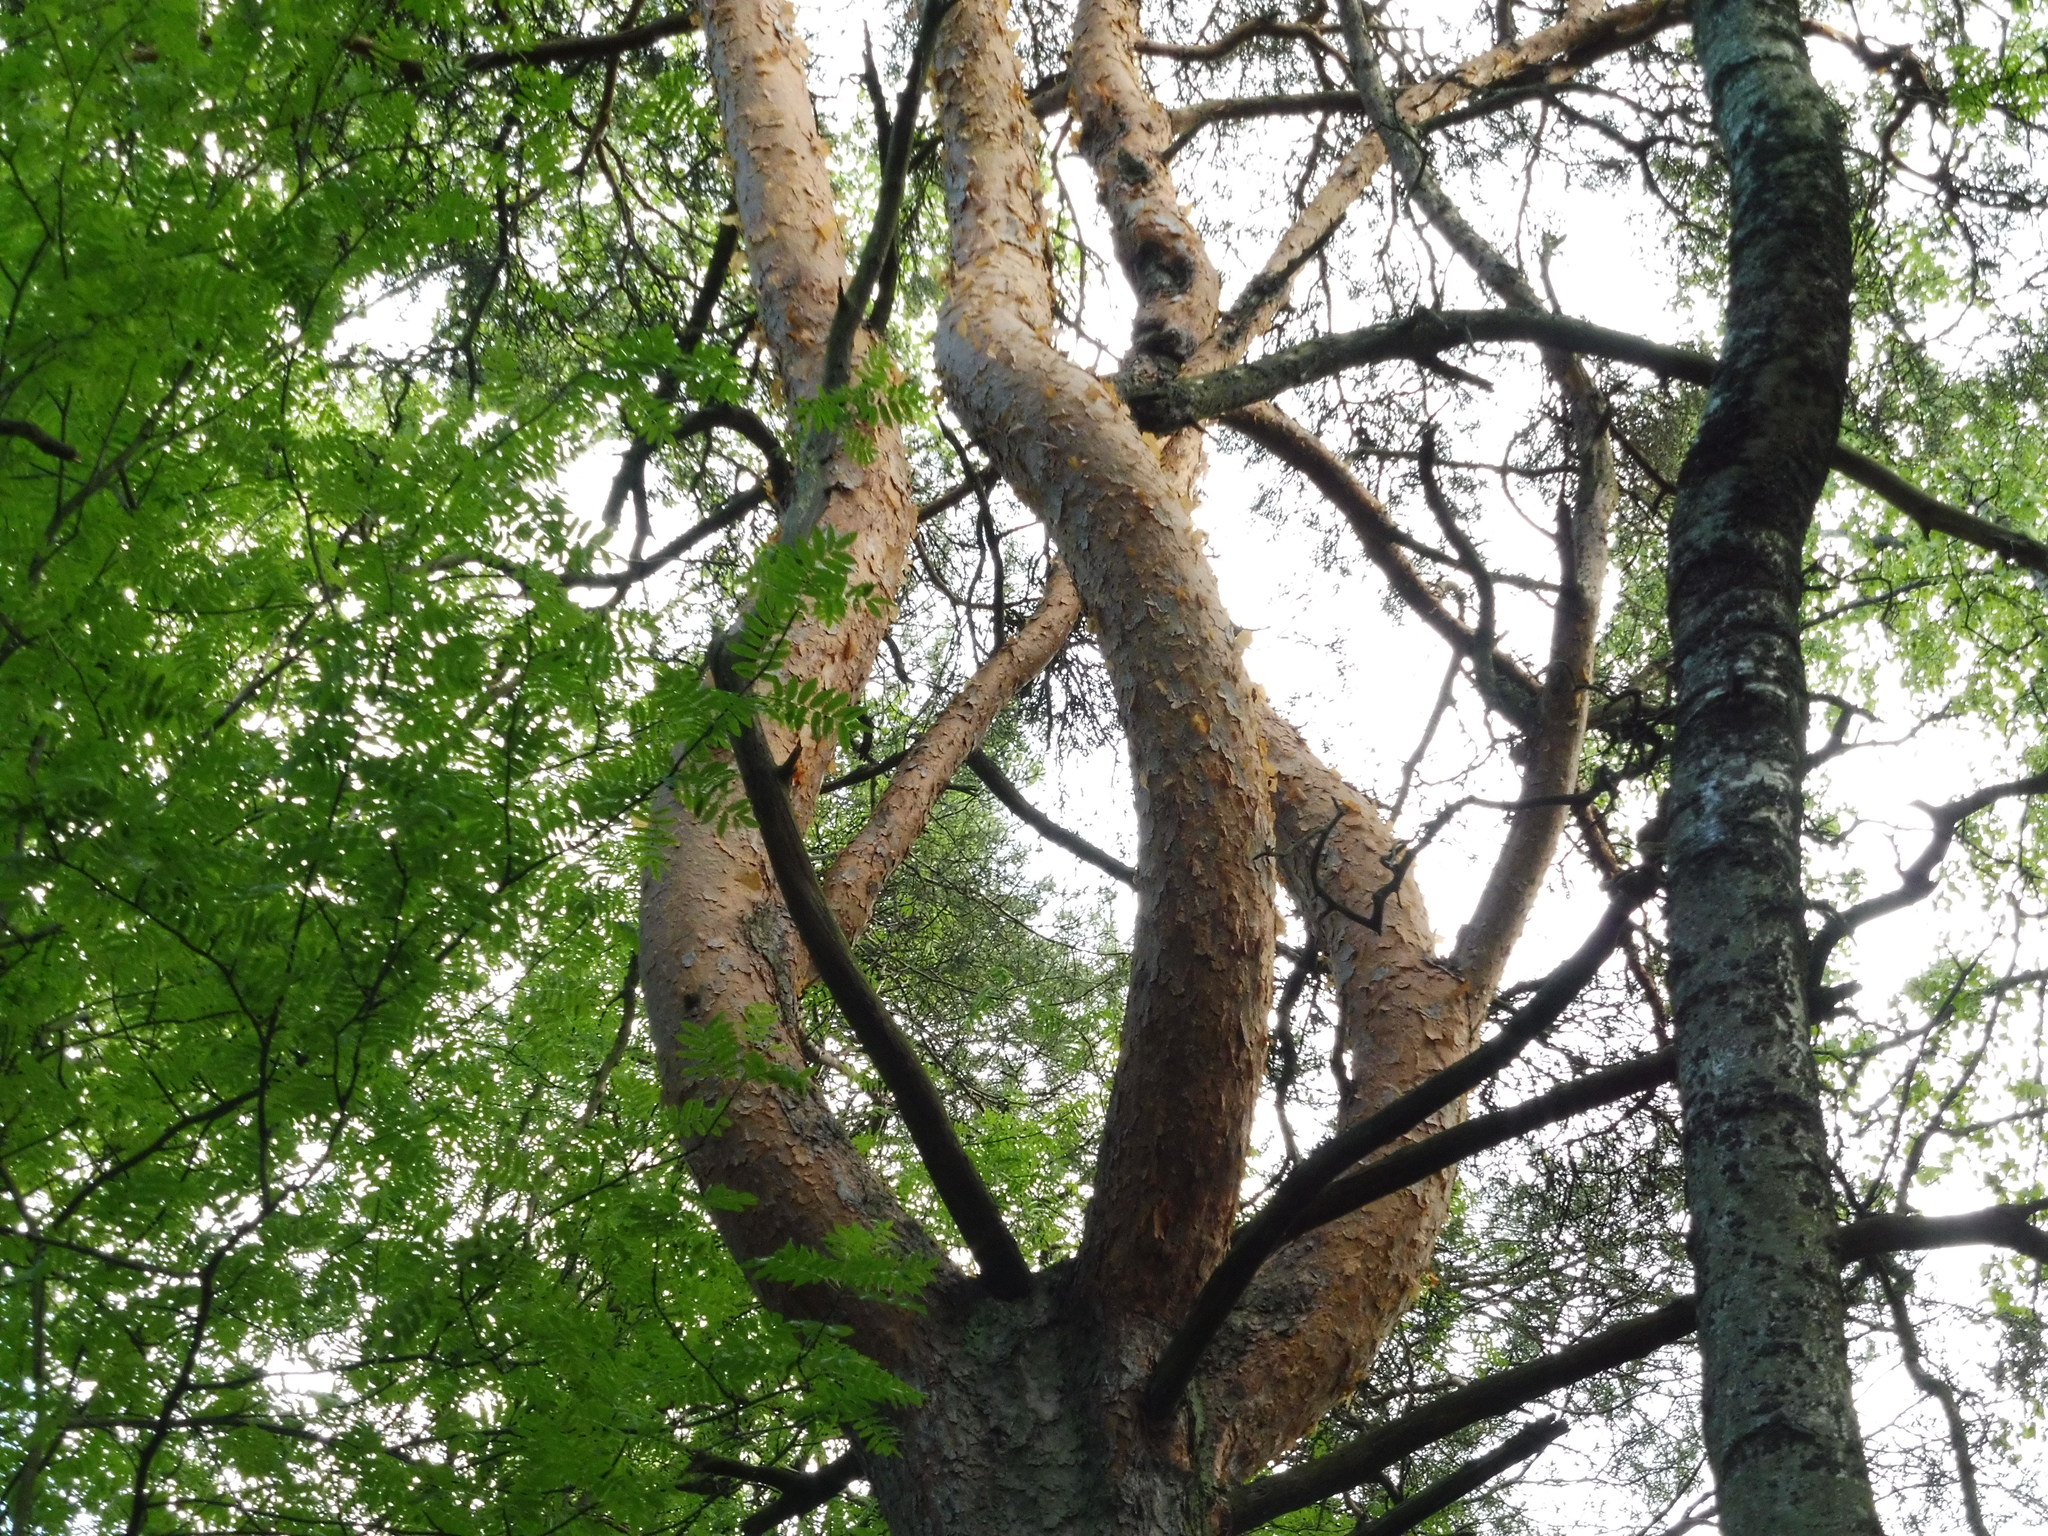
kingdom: Plantae
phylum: Tracheophyta
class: Pinopsida
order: Pinales
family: Pinaceae
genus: Pinus
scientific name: Pinus sylvestris
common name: Scots pine
